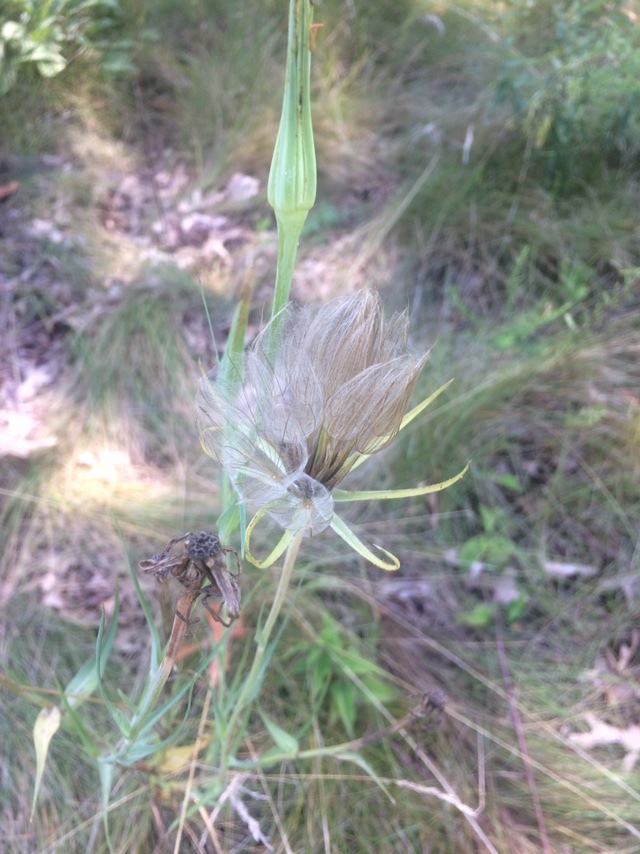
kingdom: Plantae
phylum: Tracheophyta
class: Magnoliopsida
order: Asterales
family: Asteraceae
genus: Tragopogon
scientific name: Tragopogon dubius
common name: Yellow salsify
